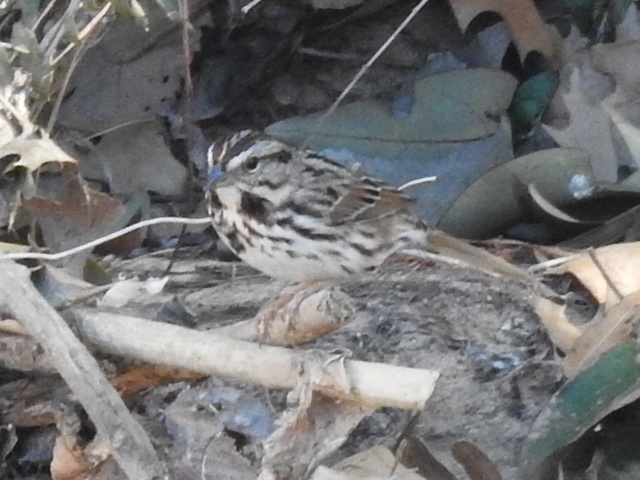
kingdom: Animalia
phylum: Chordata
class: Aves
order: Passeriformes
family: Passerellidae
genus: Melospiza
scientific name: Melospiza melodia
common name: Song sparrow
